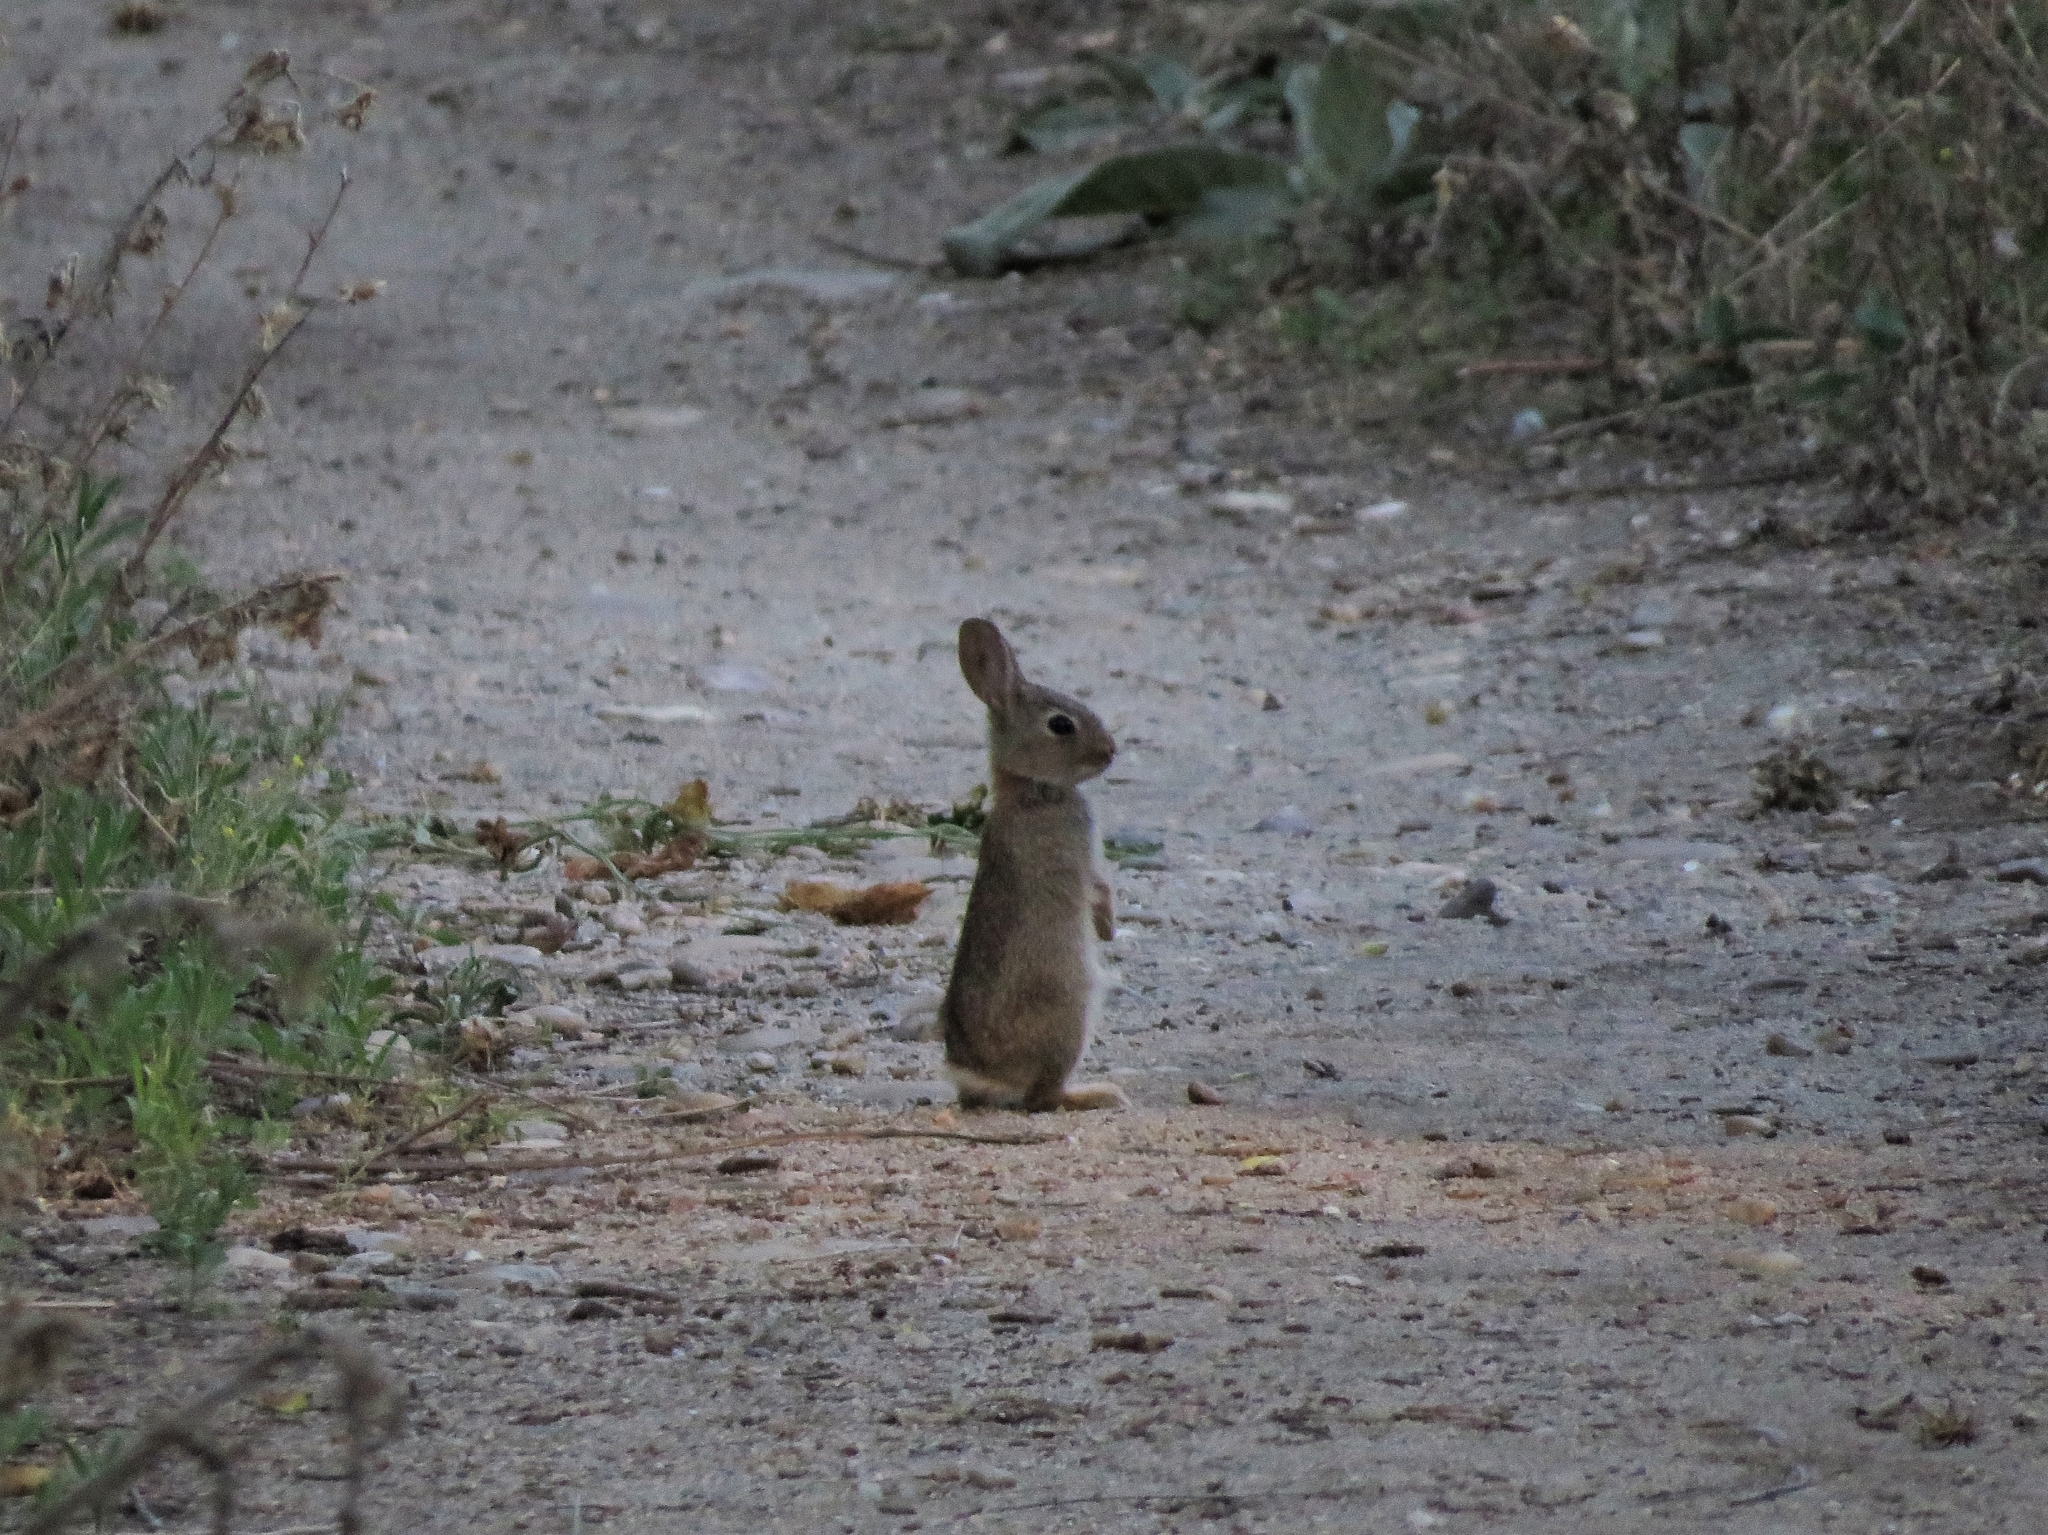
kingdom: Animalia
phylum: Chordata
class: Mammalia
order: Lagomorpha
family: Leporidae
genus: Oryctolagus
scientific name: Oryctolagus cuniculus
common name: European rabbit
